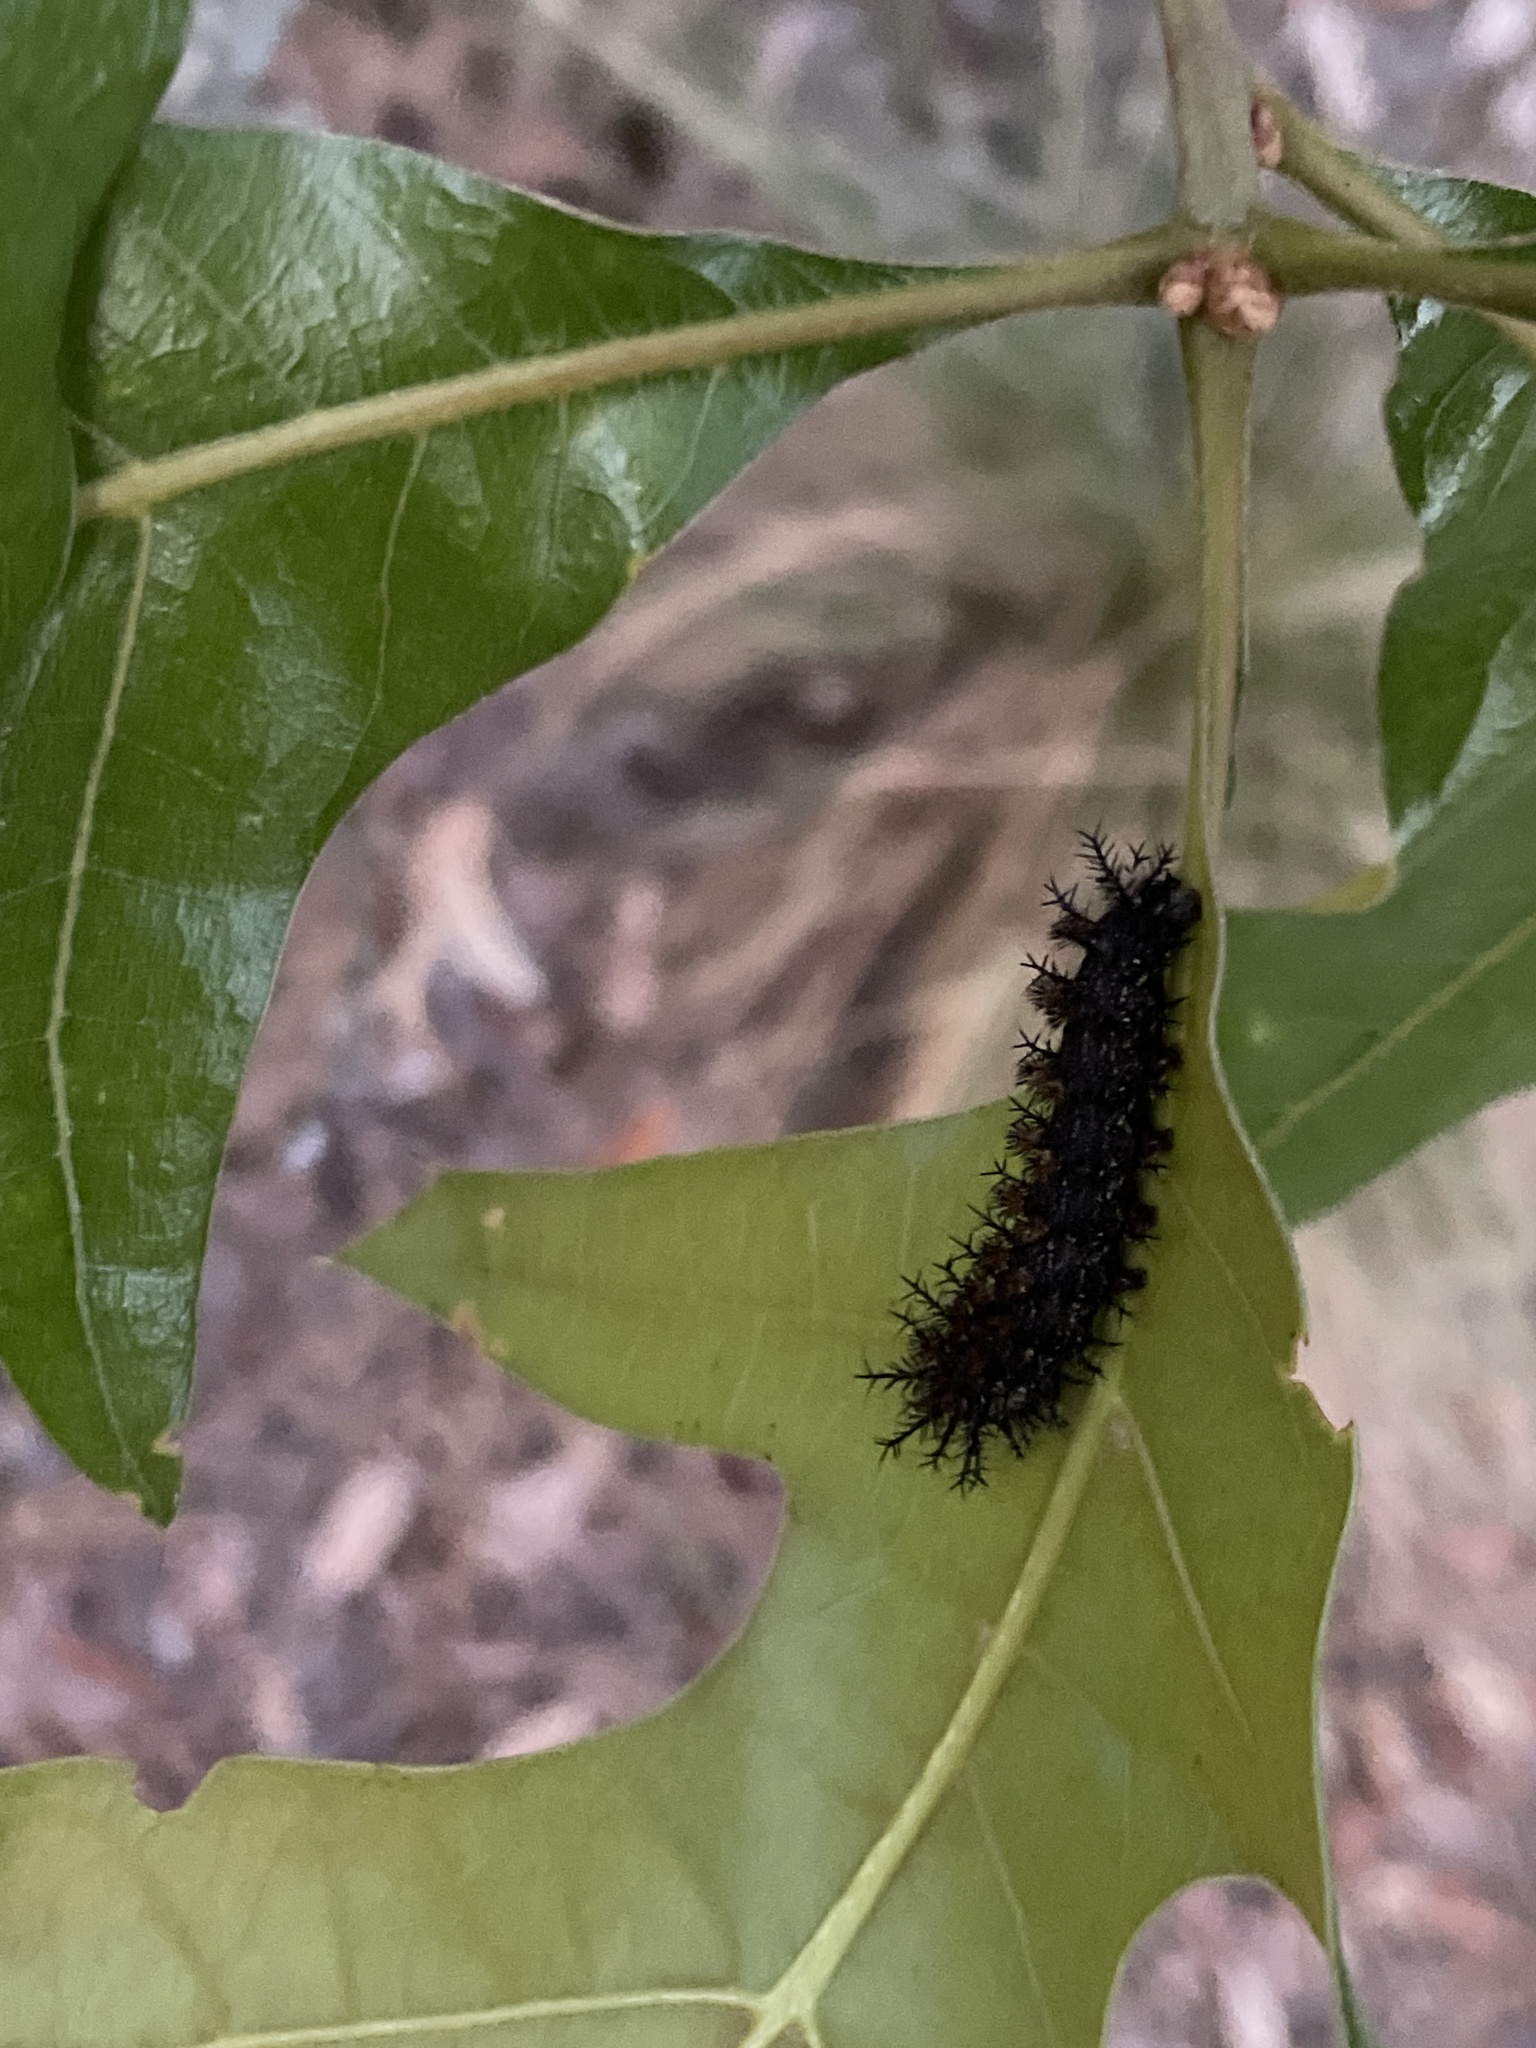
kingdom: Animalia
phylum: Arthropoda
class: Insecta
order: Lepidoptera
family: Saturniidae
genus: Hemileuca
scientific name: Hemileuca maia
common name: Eastern buckmoth
